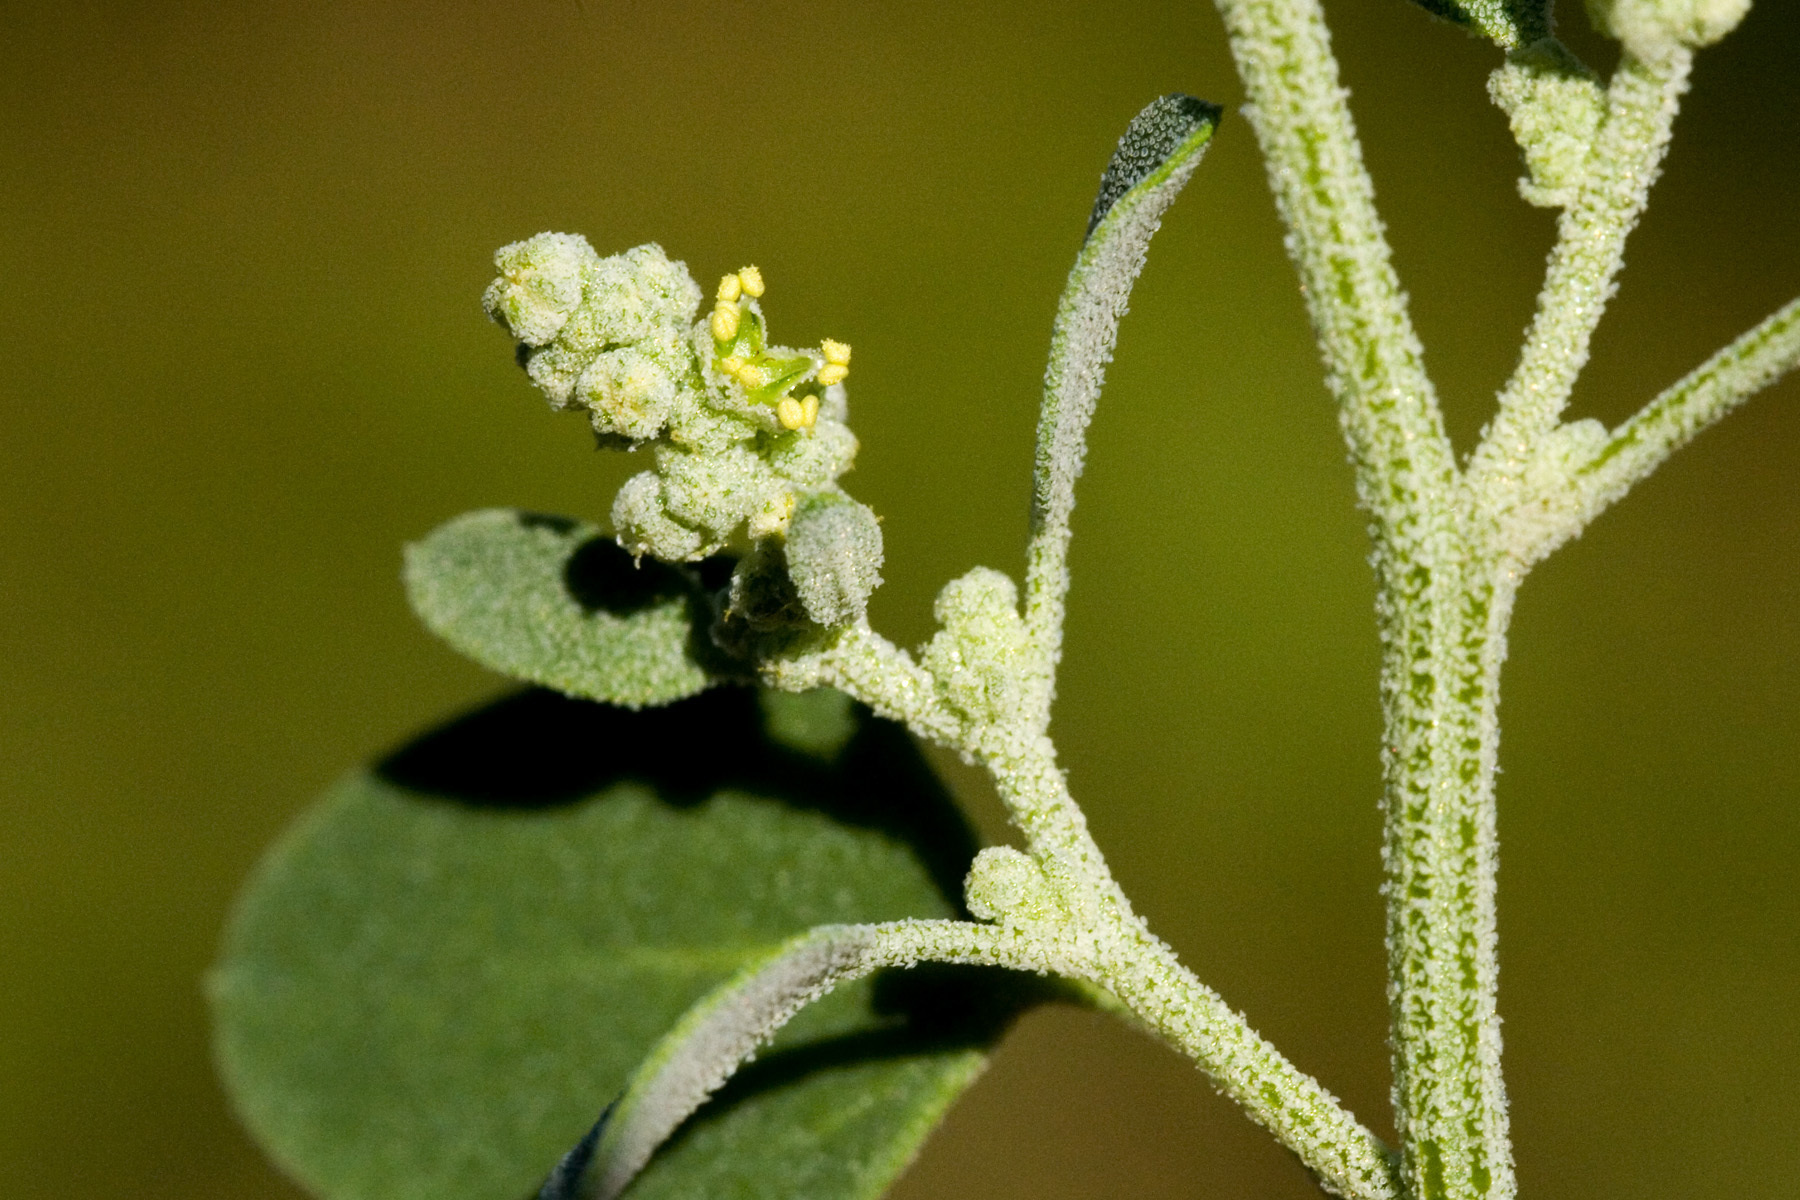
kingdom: Plantae
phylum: Tracheophyta
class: Magnoliopsida
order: Caryophyllales
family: Amaranthaceae
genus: Chenopodium
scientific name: Chenopodium neomexicanum
